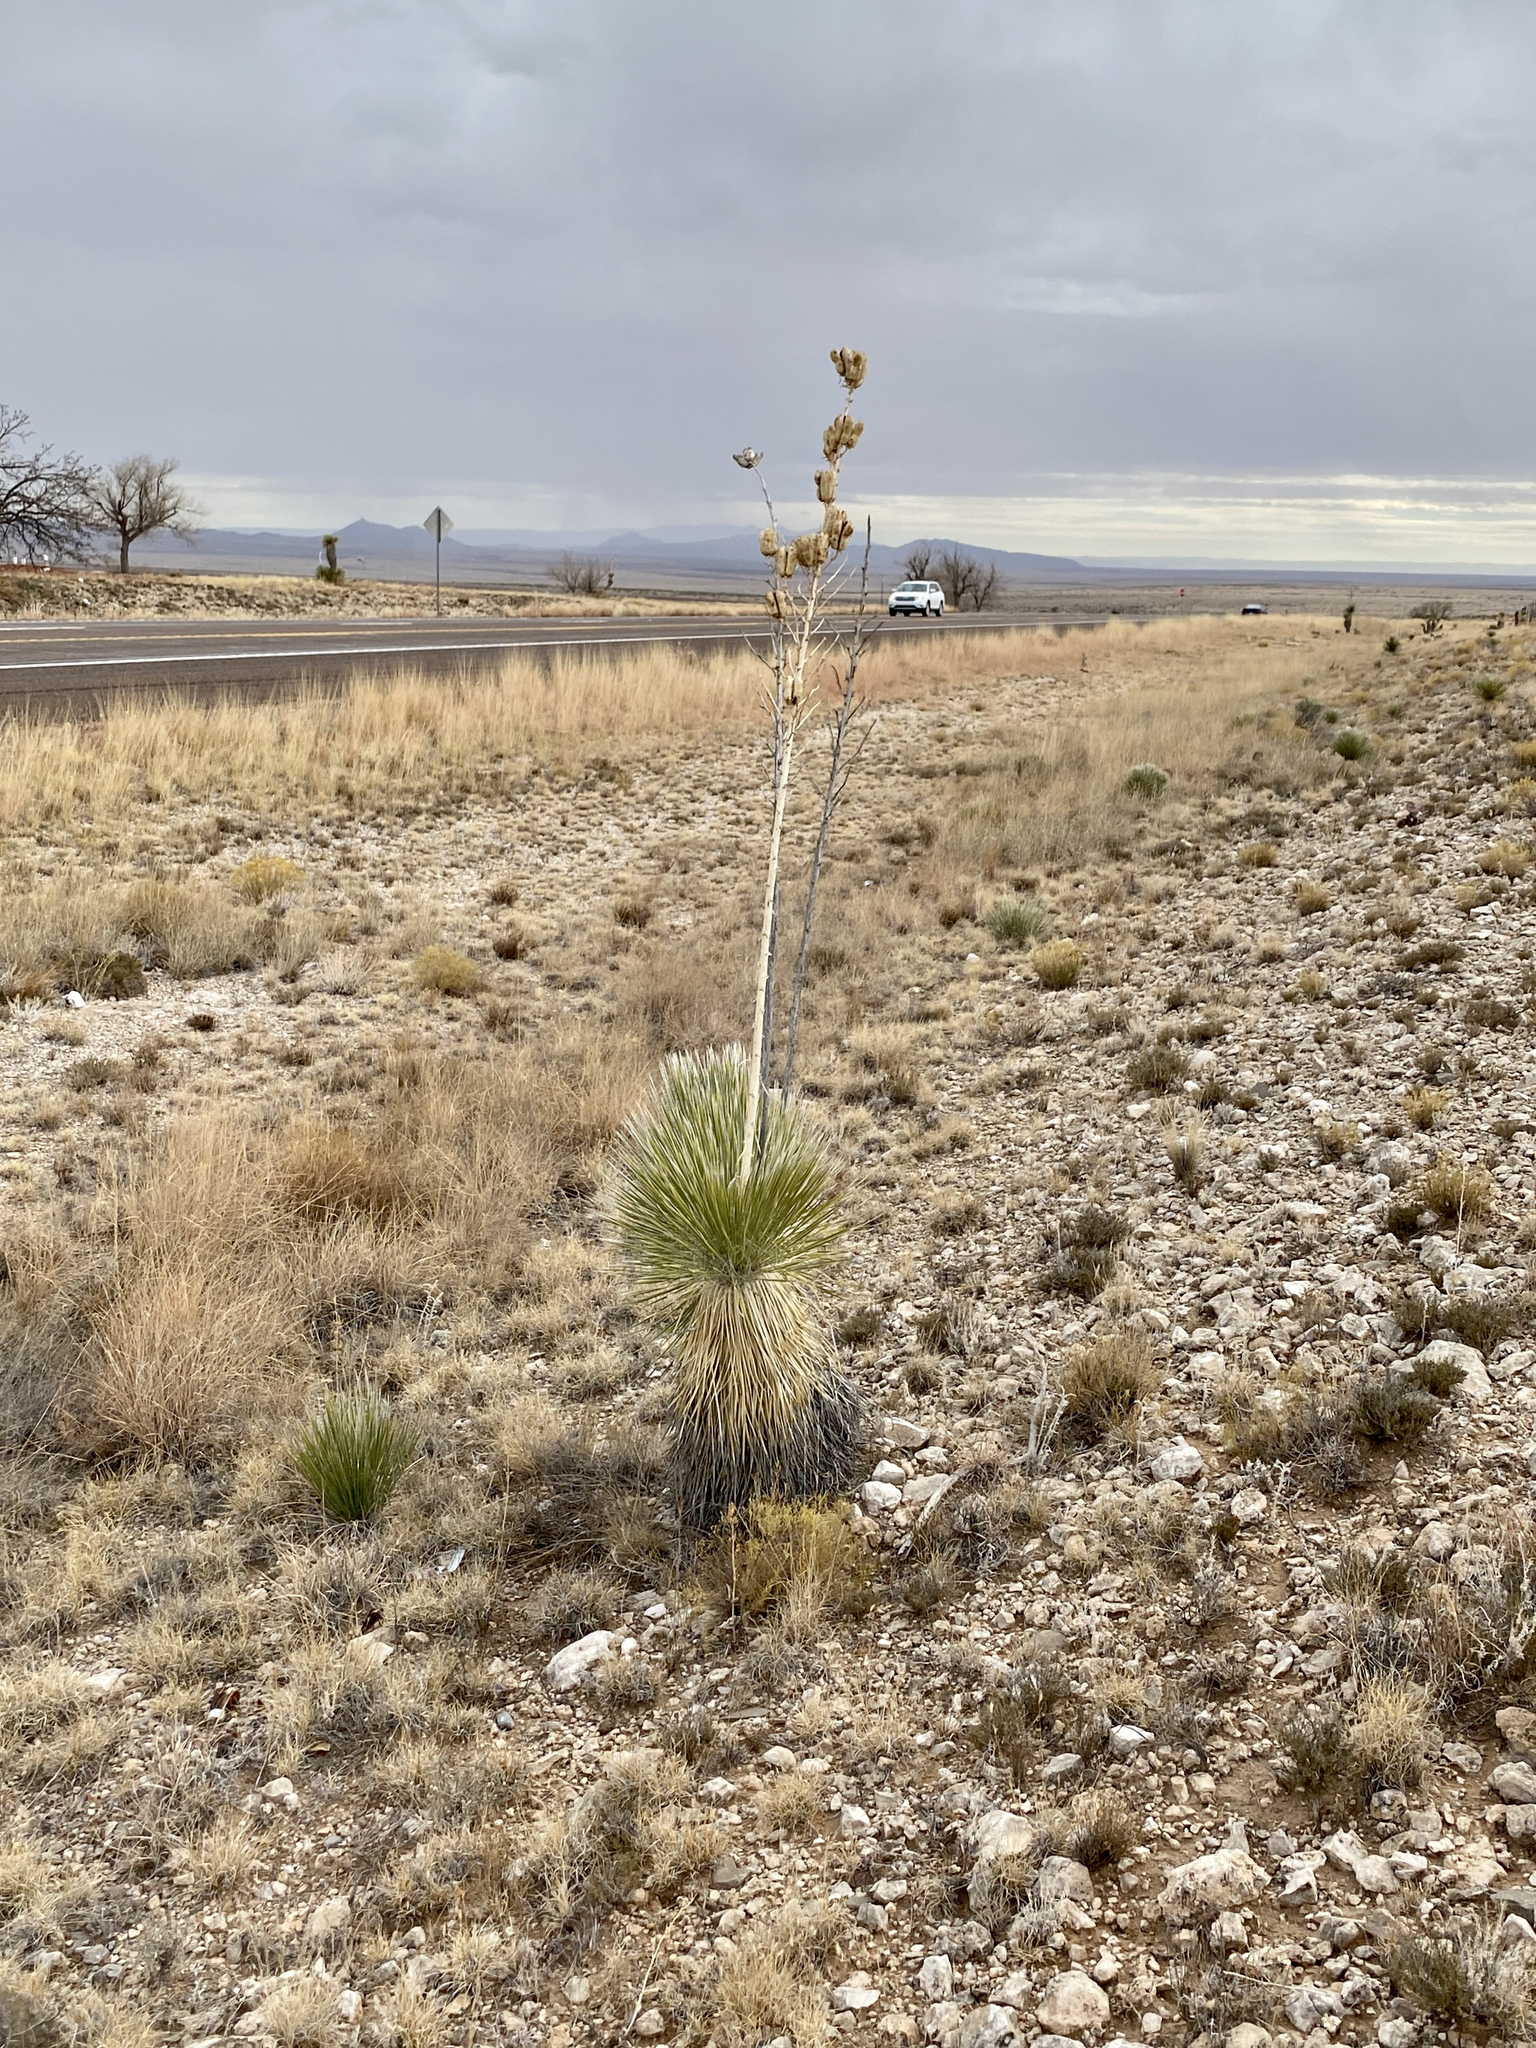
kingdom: Plantae
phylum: Tracheophyta
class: Liliopsida
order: Asparagales
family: Asparagaceae
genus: Yucca
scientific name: Yucca elata
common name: Palmella
